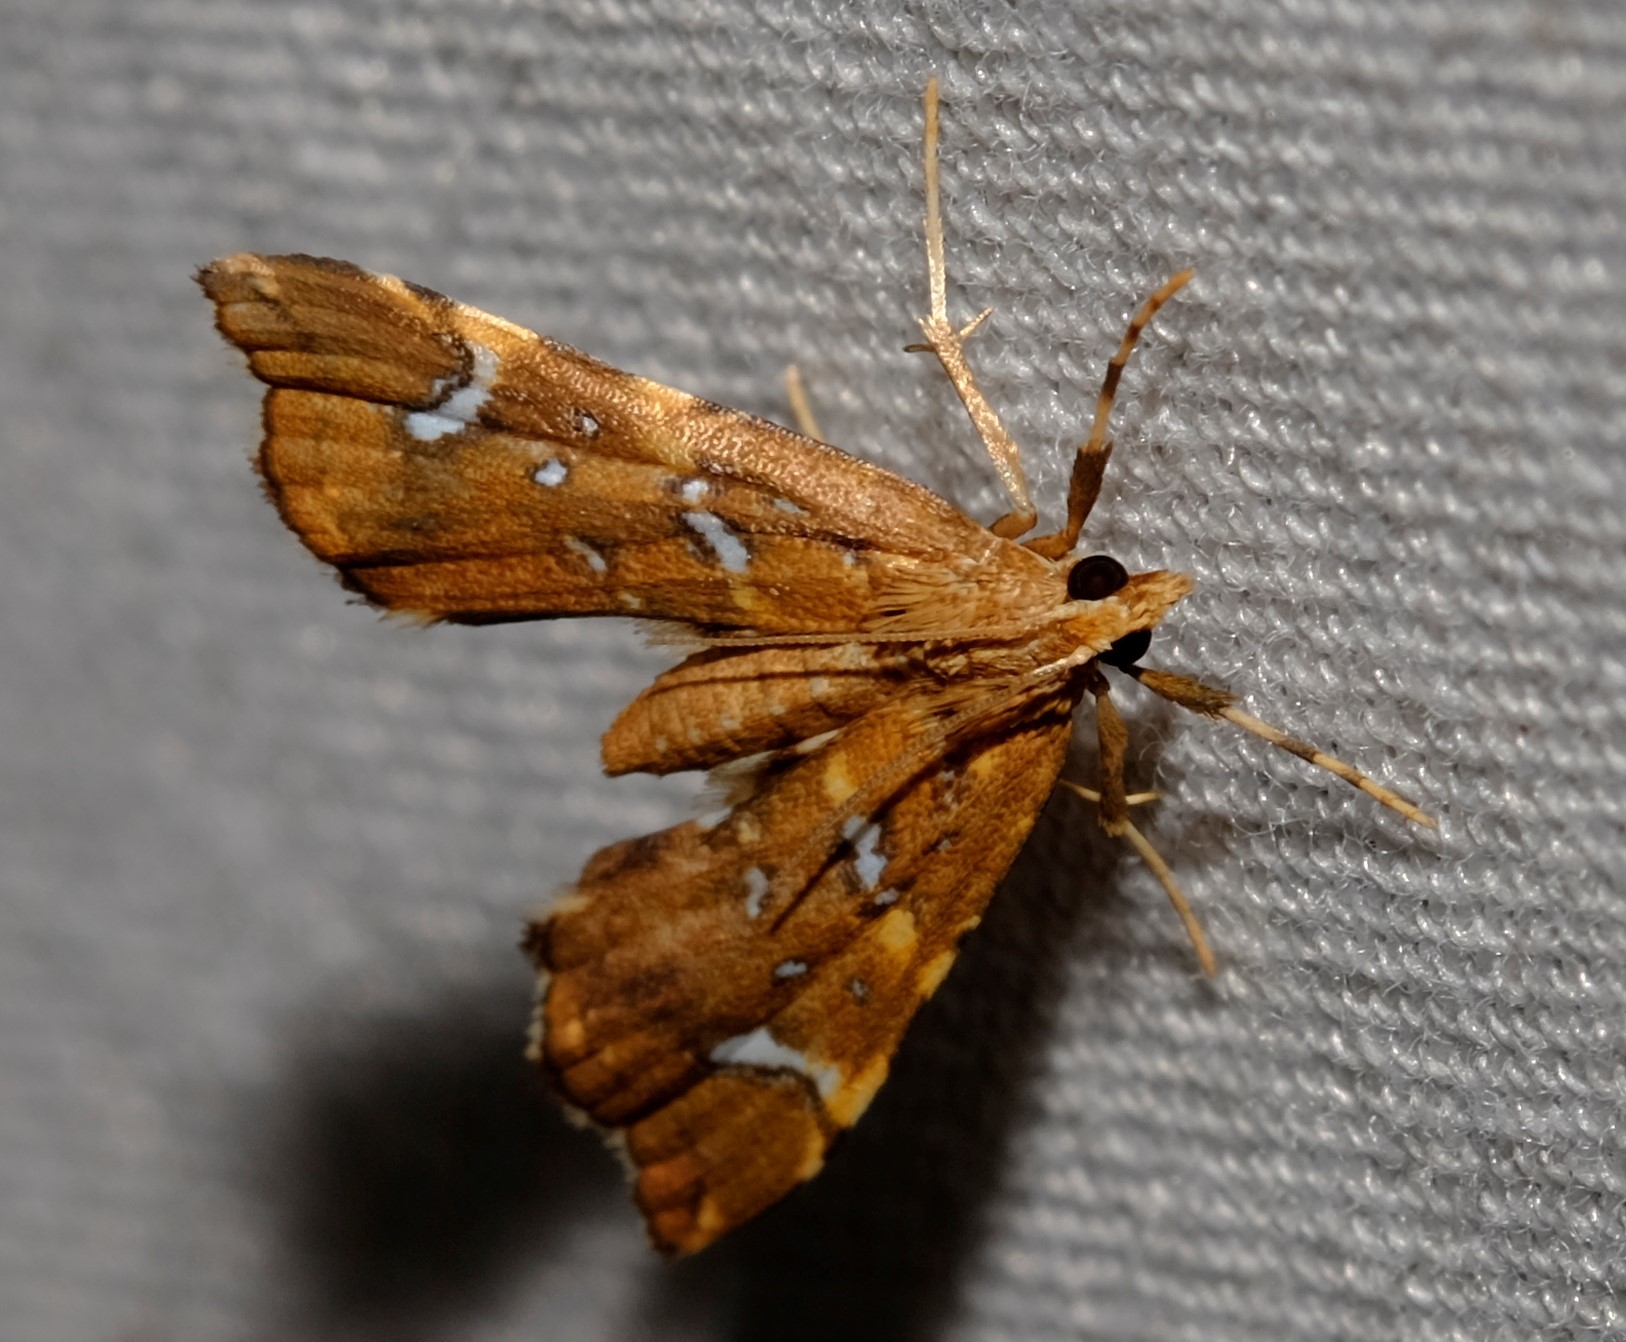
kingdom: Animalia
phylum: Arthropoda
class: Insecta
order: Lepidoptera
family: Pyralidae
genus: Musotima
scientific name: Musotima nitidalis
